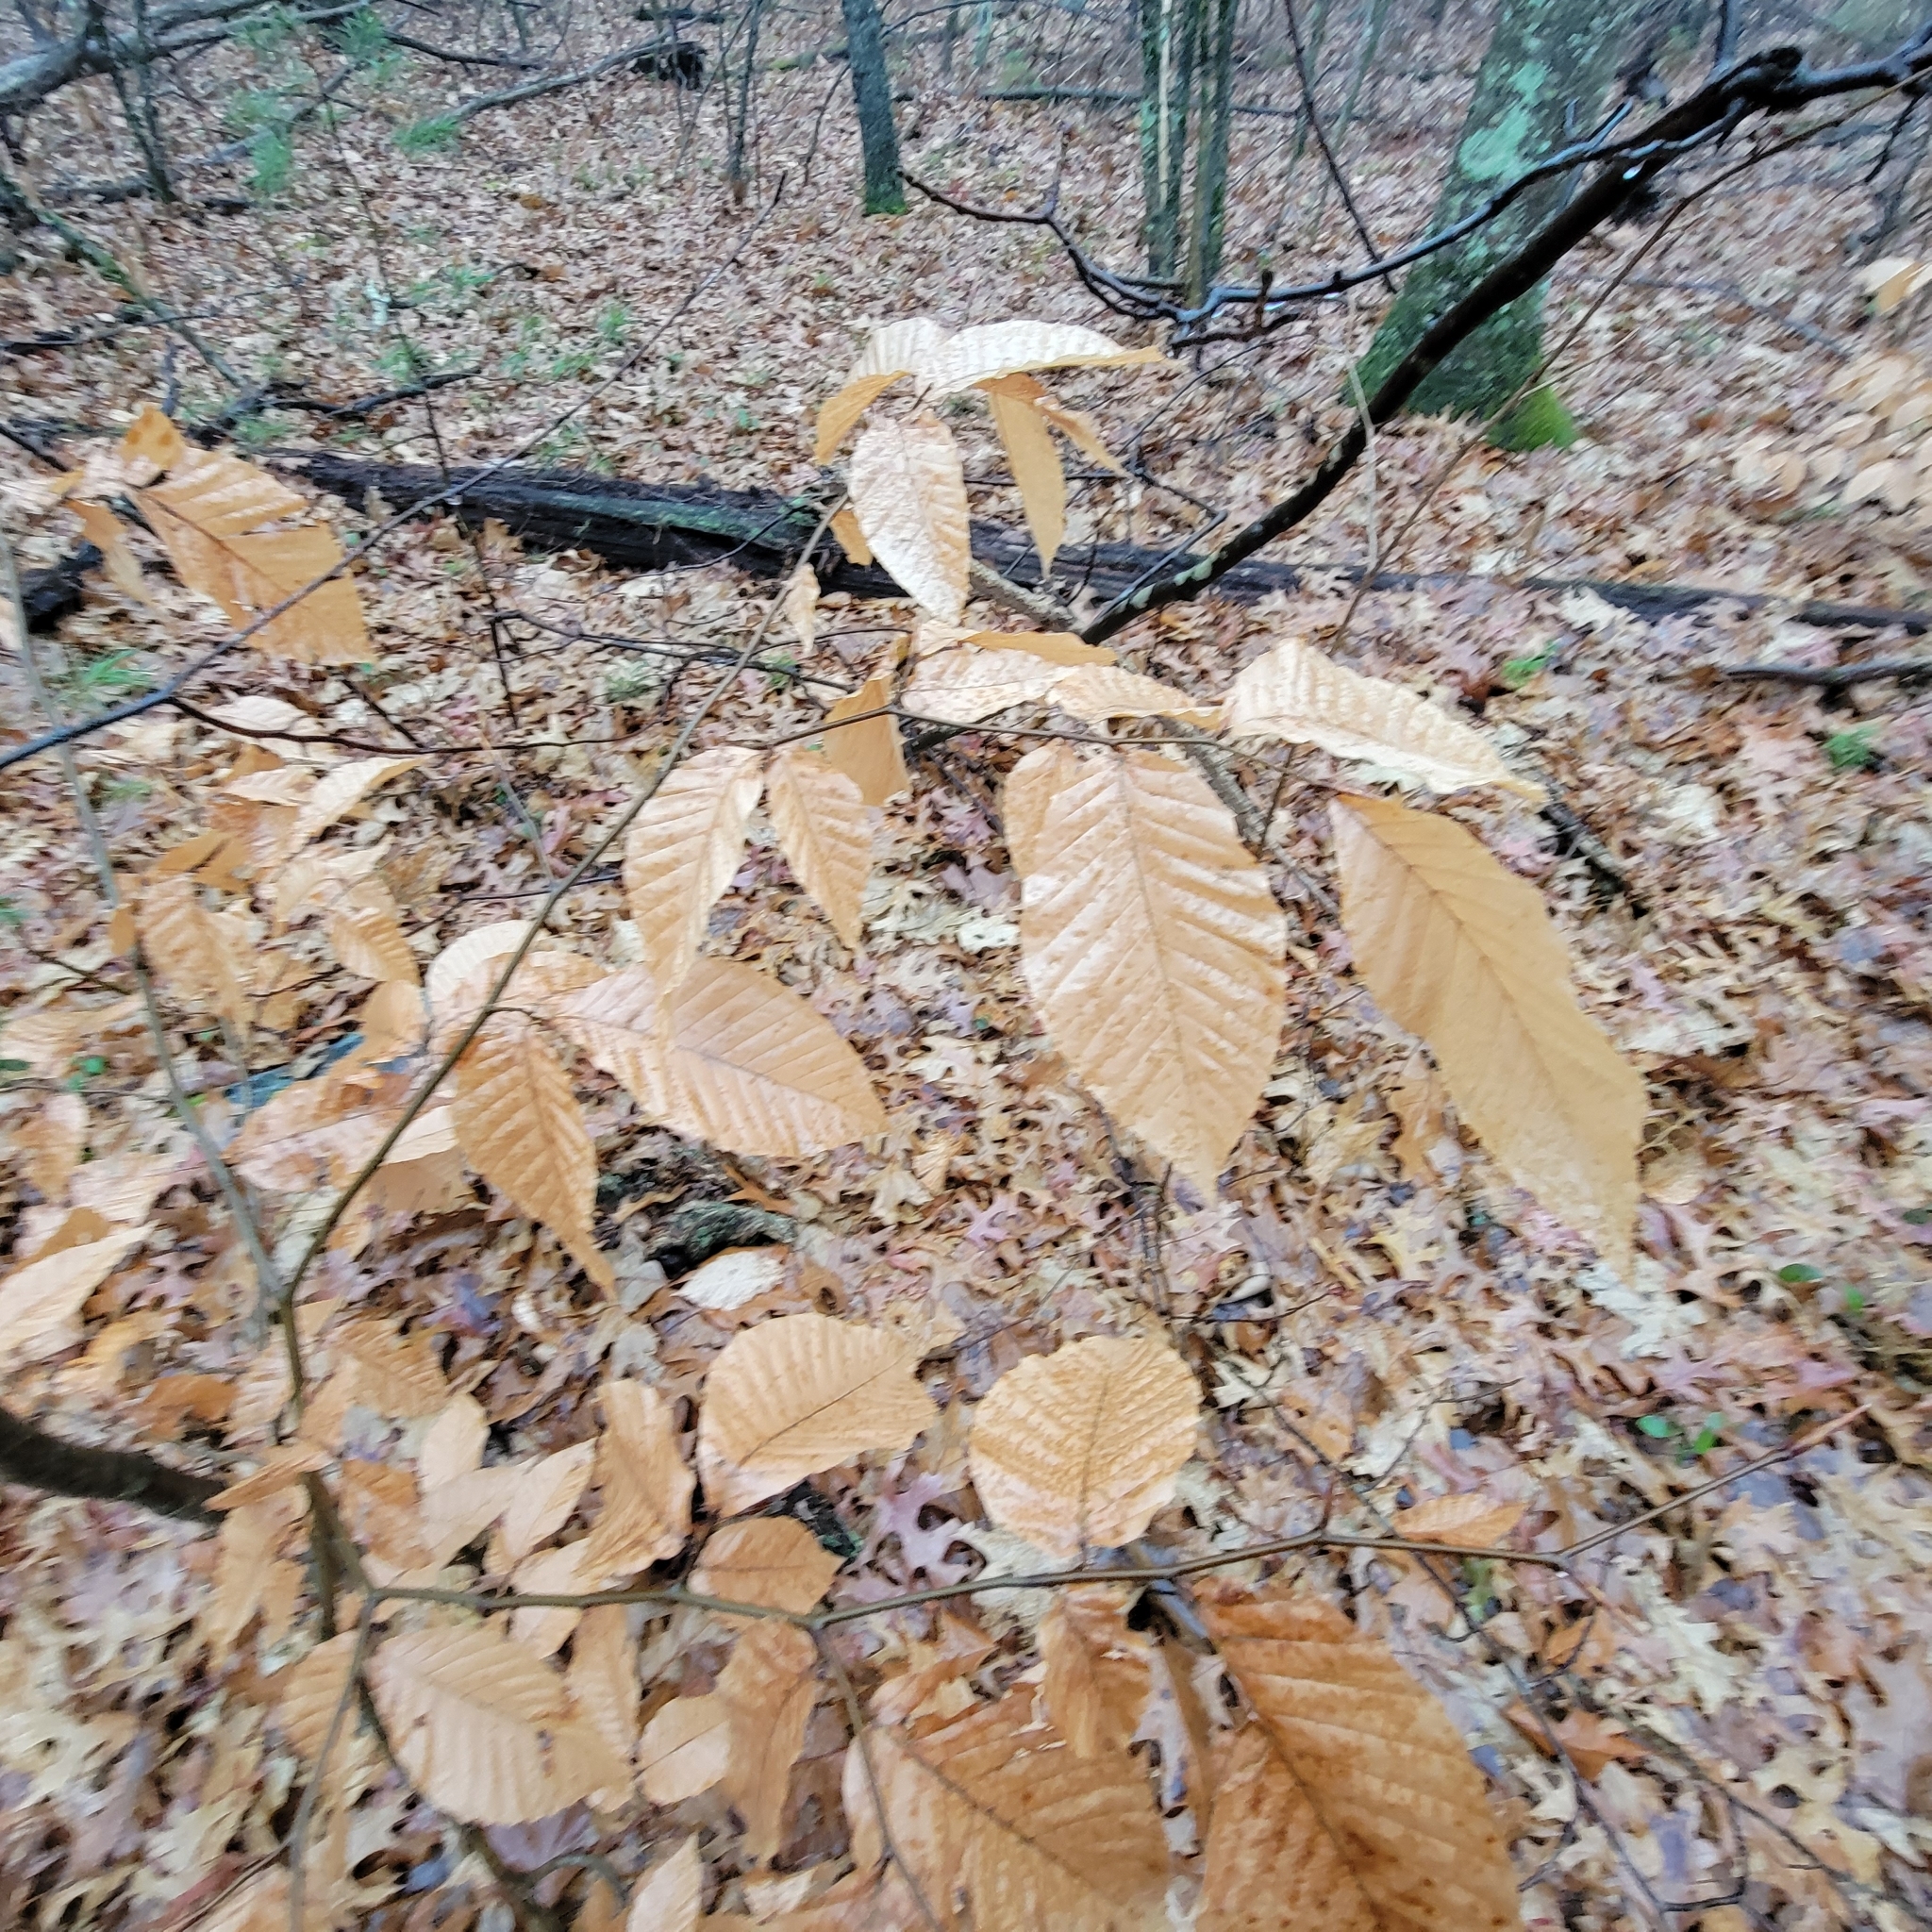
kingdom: Plantae
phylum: Tracheophyta
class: Magnoliopsida
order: Fagales
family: Fagaceae
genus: Fagus
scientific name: Fagus grandifolia
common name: American beech
